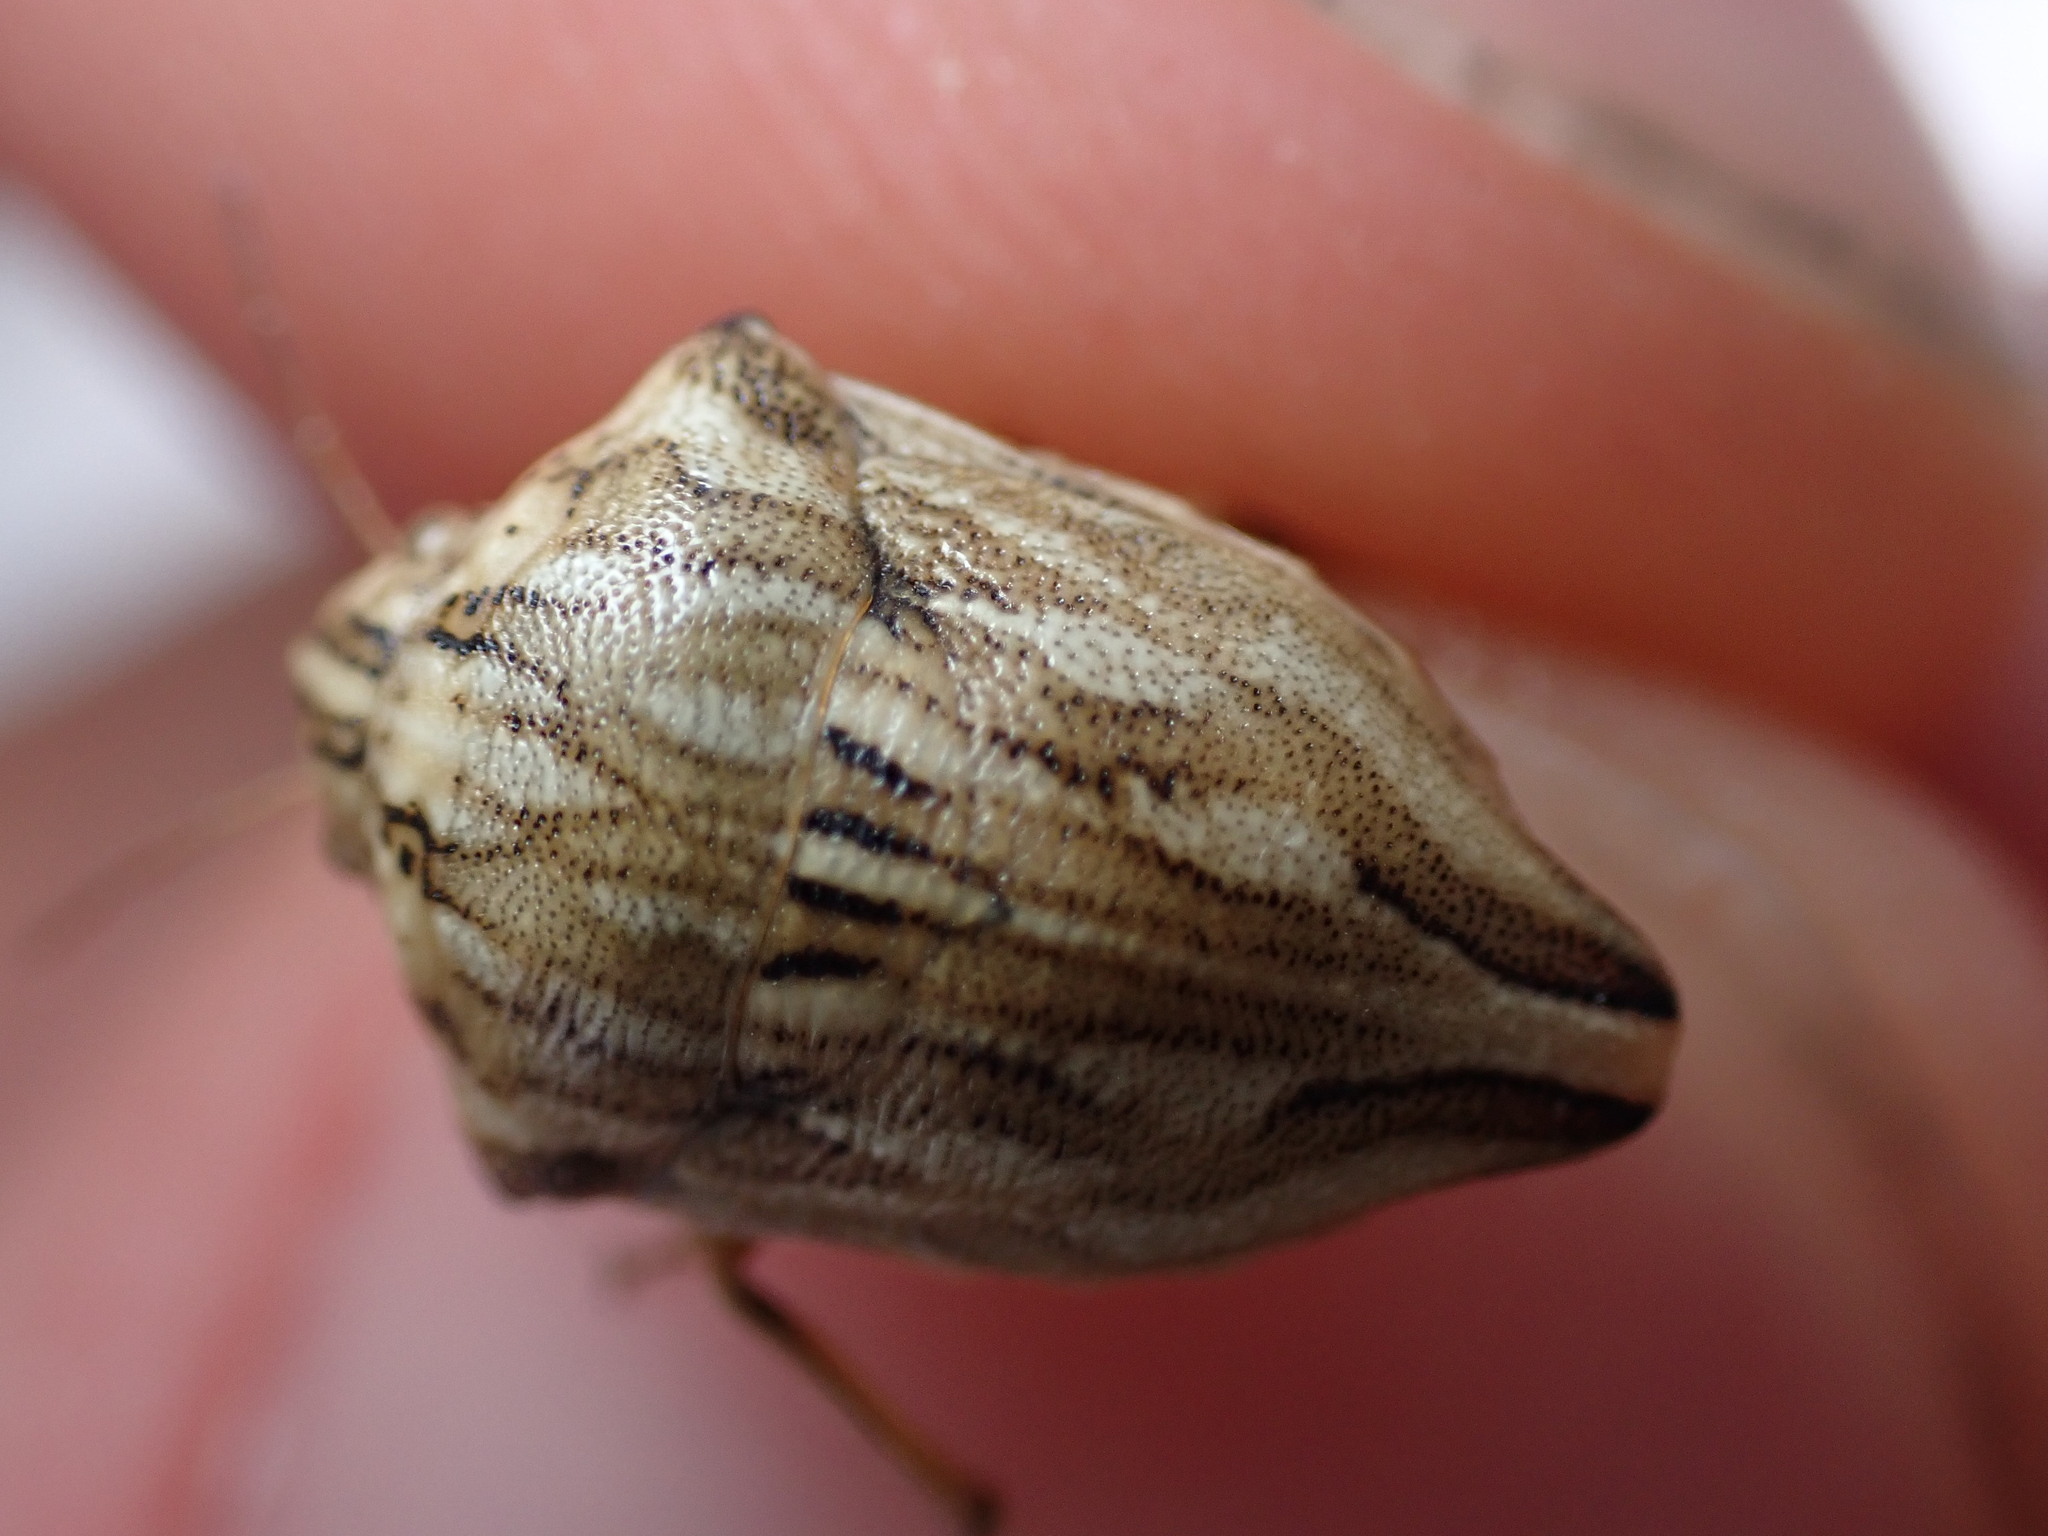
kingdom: Animalia
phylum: Arthropoda
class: Insecta
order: Hemiptera
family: Scutelleridae
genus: Odontotarsus
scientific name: Odontotarsus robustus
